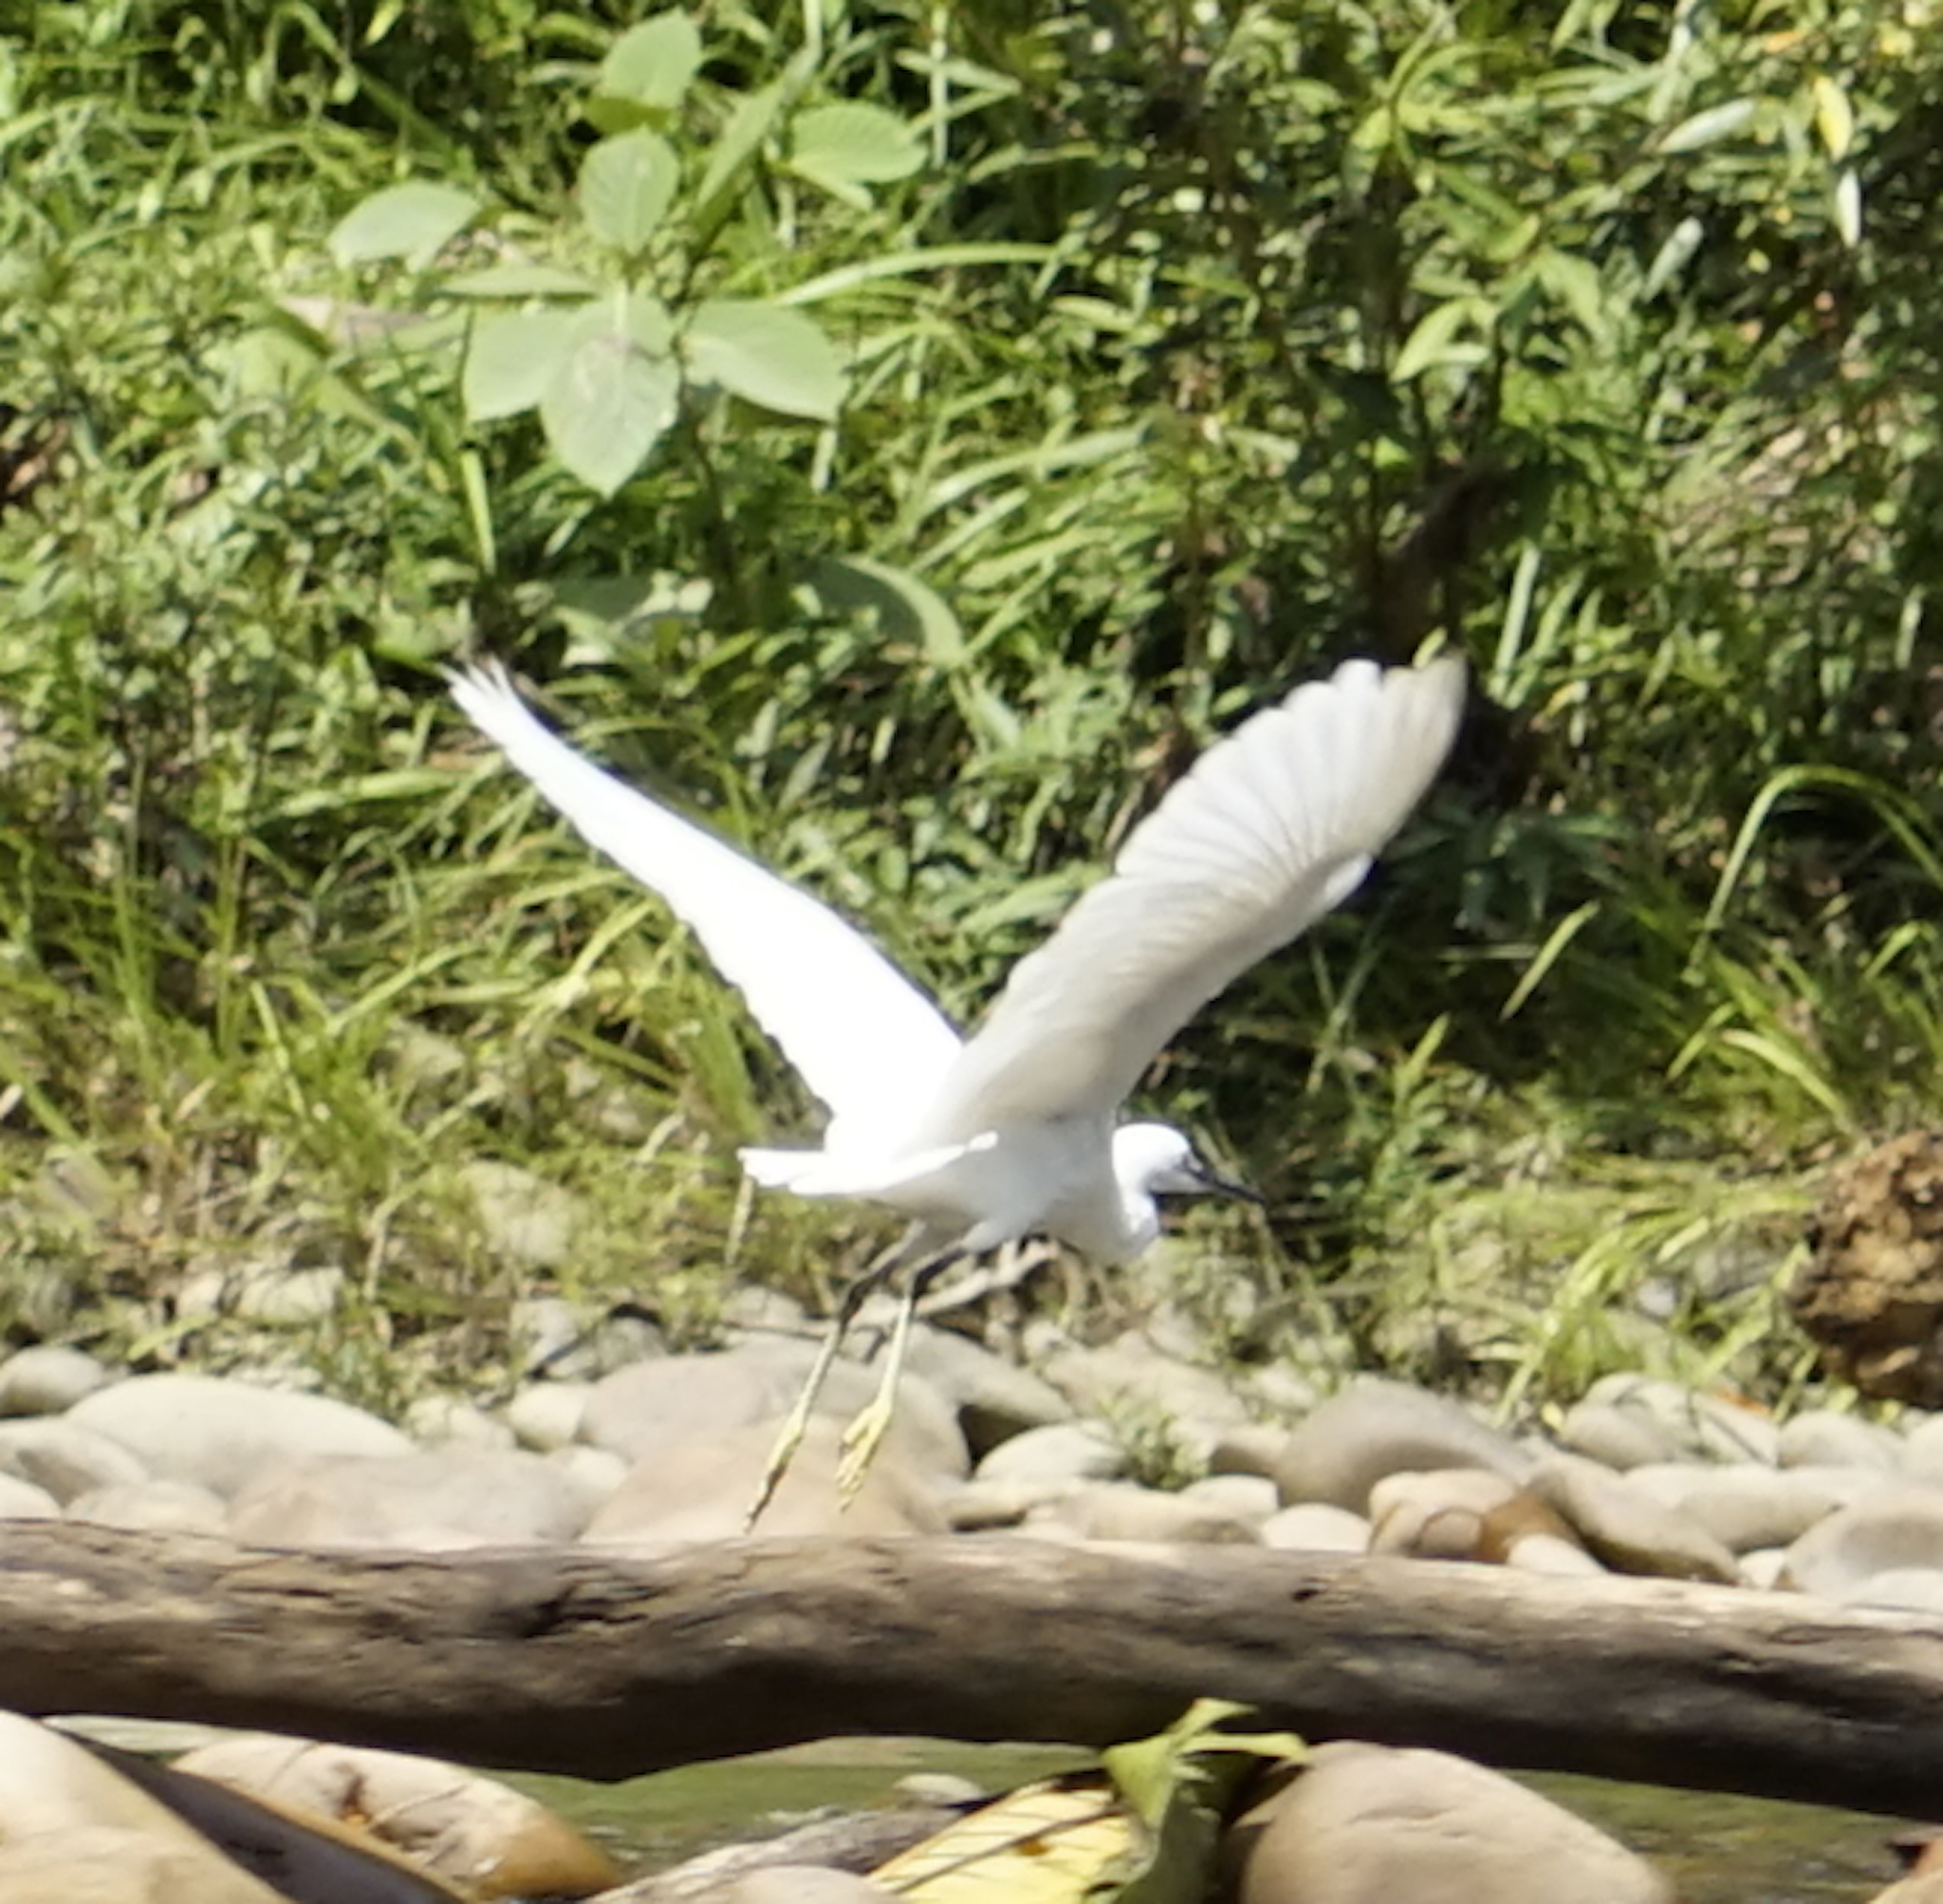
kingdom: Animalia
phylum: Chordata
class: Aves
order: Pelecaniformes
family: Ardeidae
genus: Egretta
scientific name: Egretta garzetta
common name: Little egret
